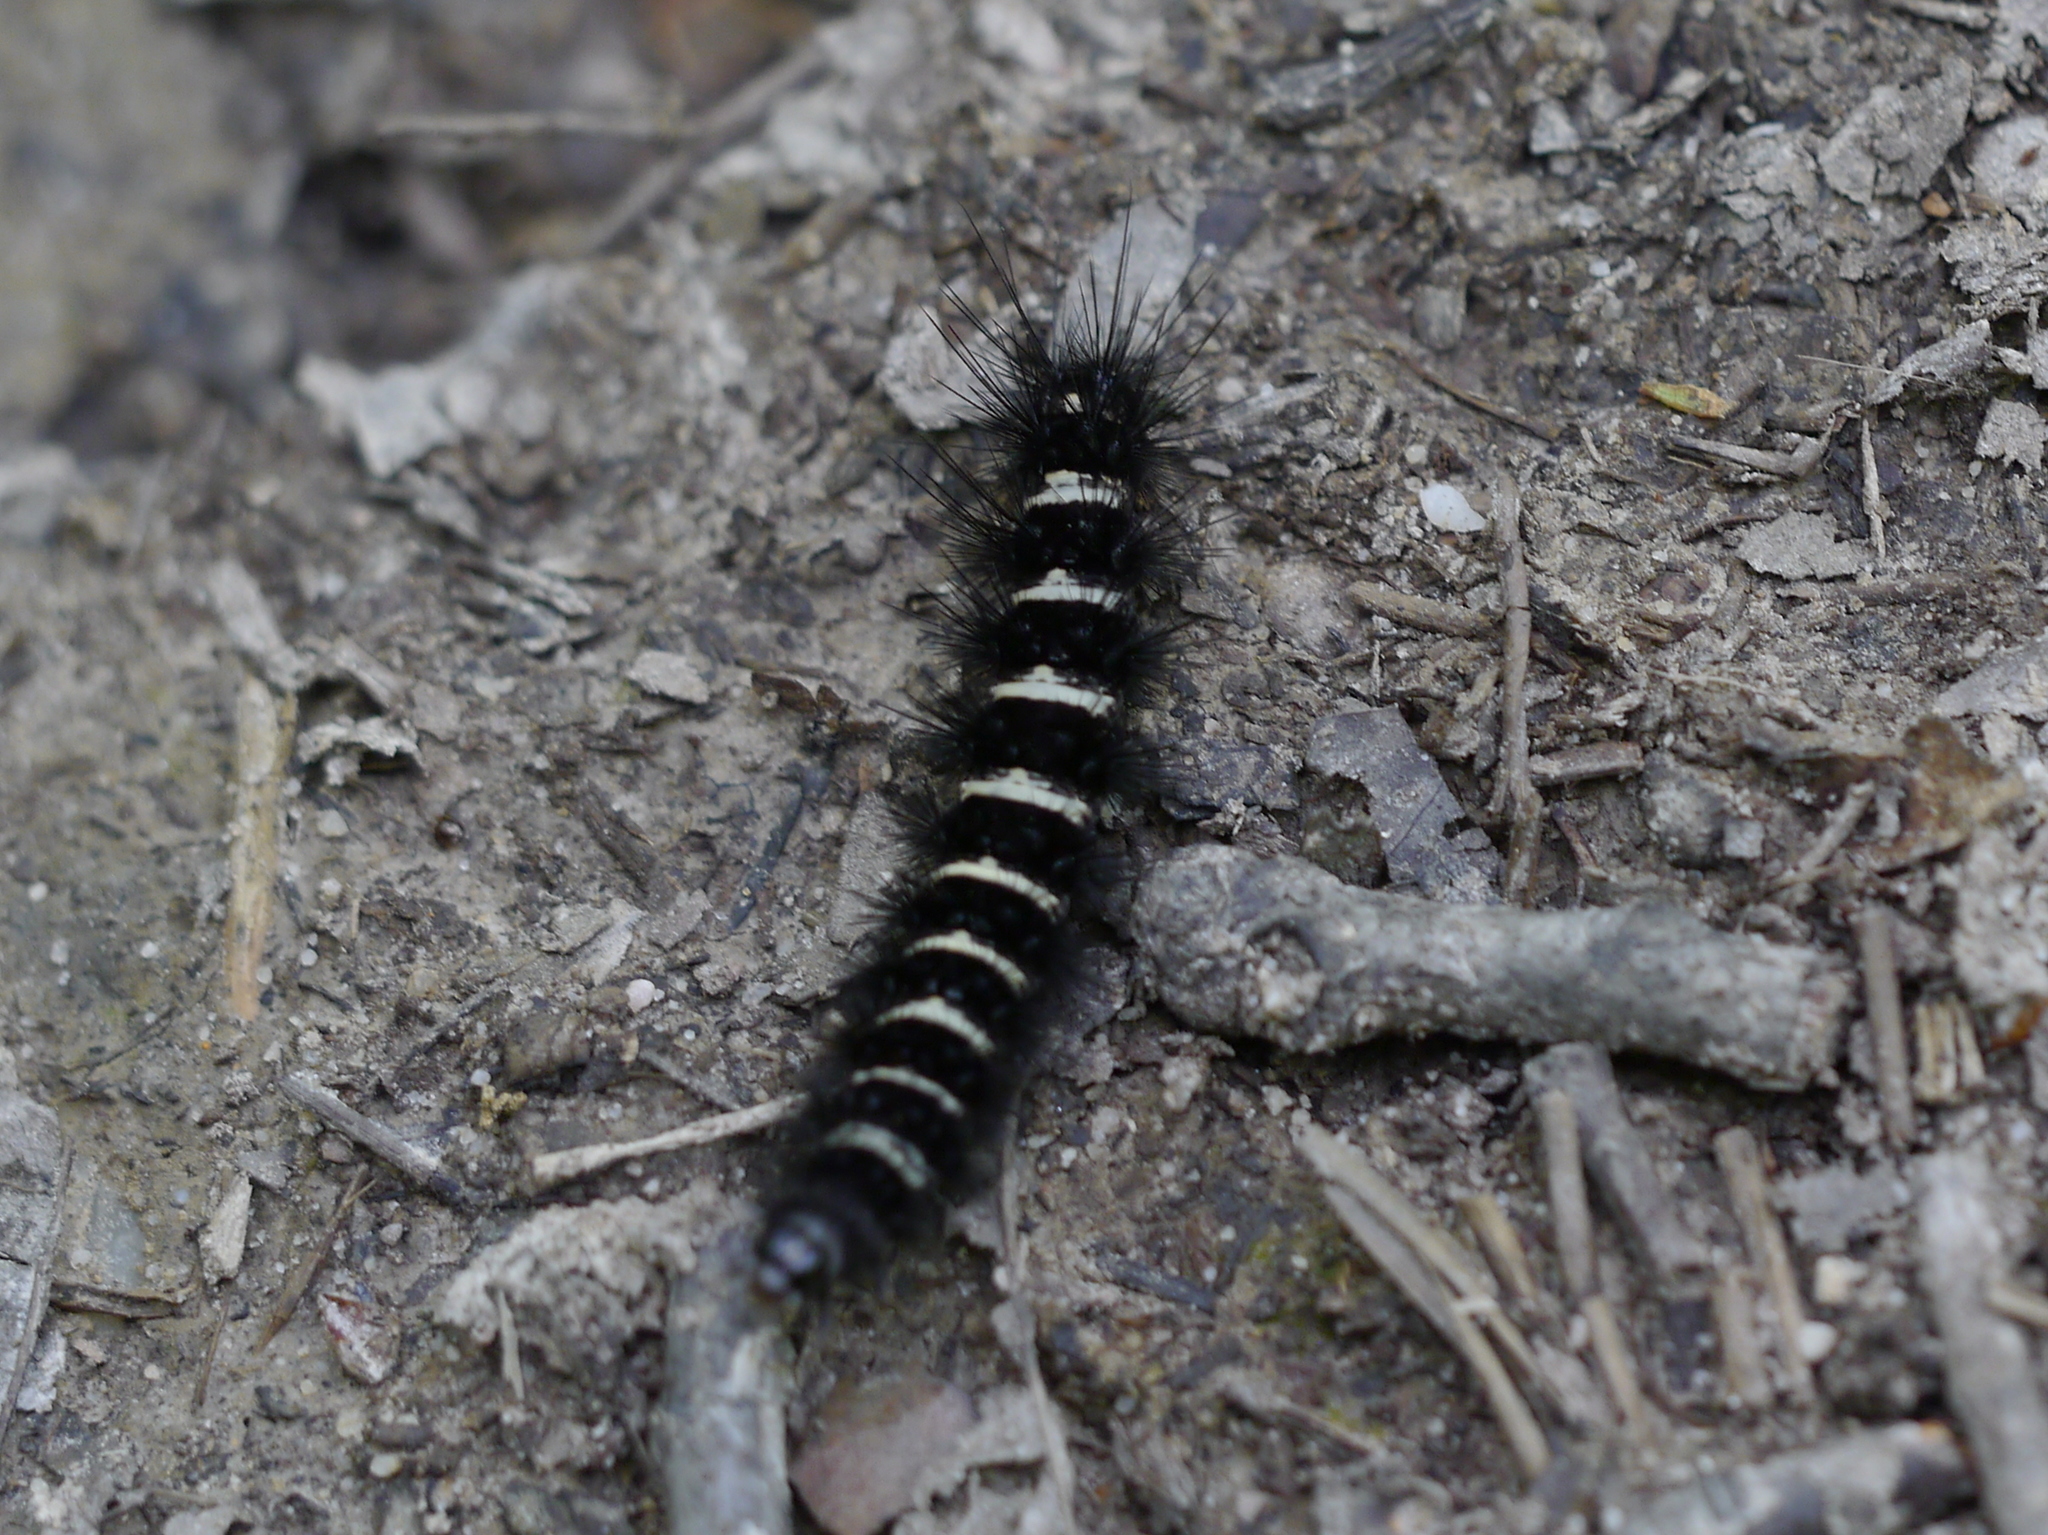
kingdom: Animalia
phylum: Arthropoda
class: Insecta
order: Lepidoptera
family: Erebidae
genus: Spilosoma
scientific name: Spilosoma congrua
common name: Agreeable tiger moth
